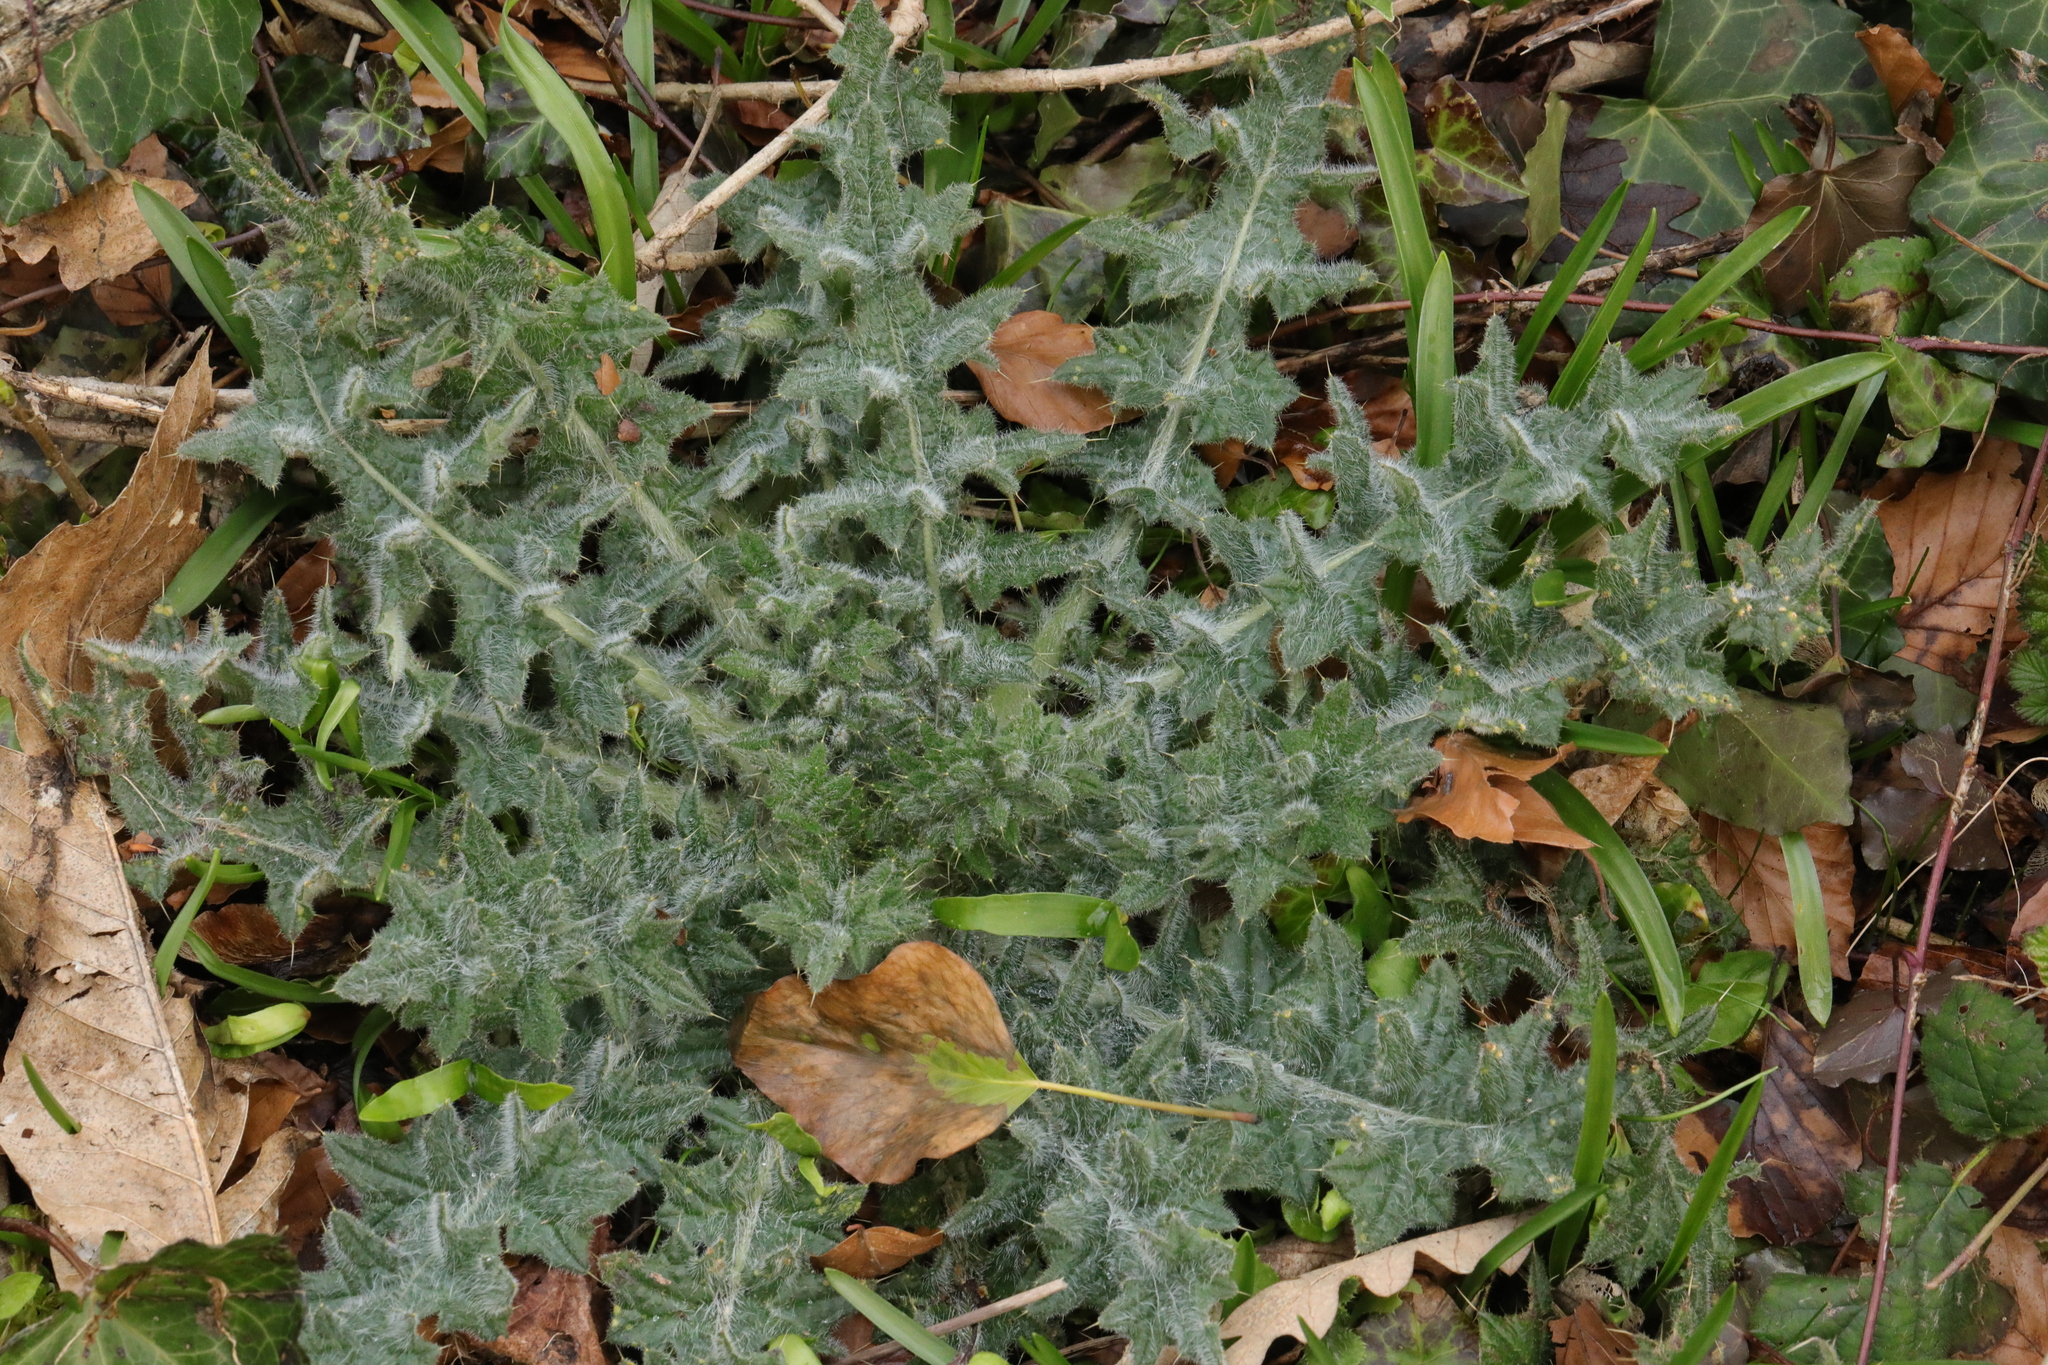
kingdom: Plantae
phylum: Tracheophyta
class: Magnoliopsida
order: Asterales
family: Asteraceae
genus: Cirsium
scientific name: Cirsium vulgare
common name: Bull thistle
